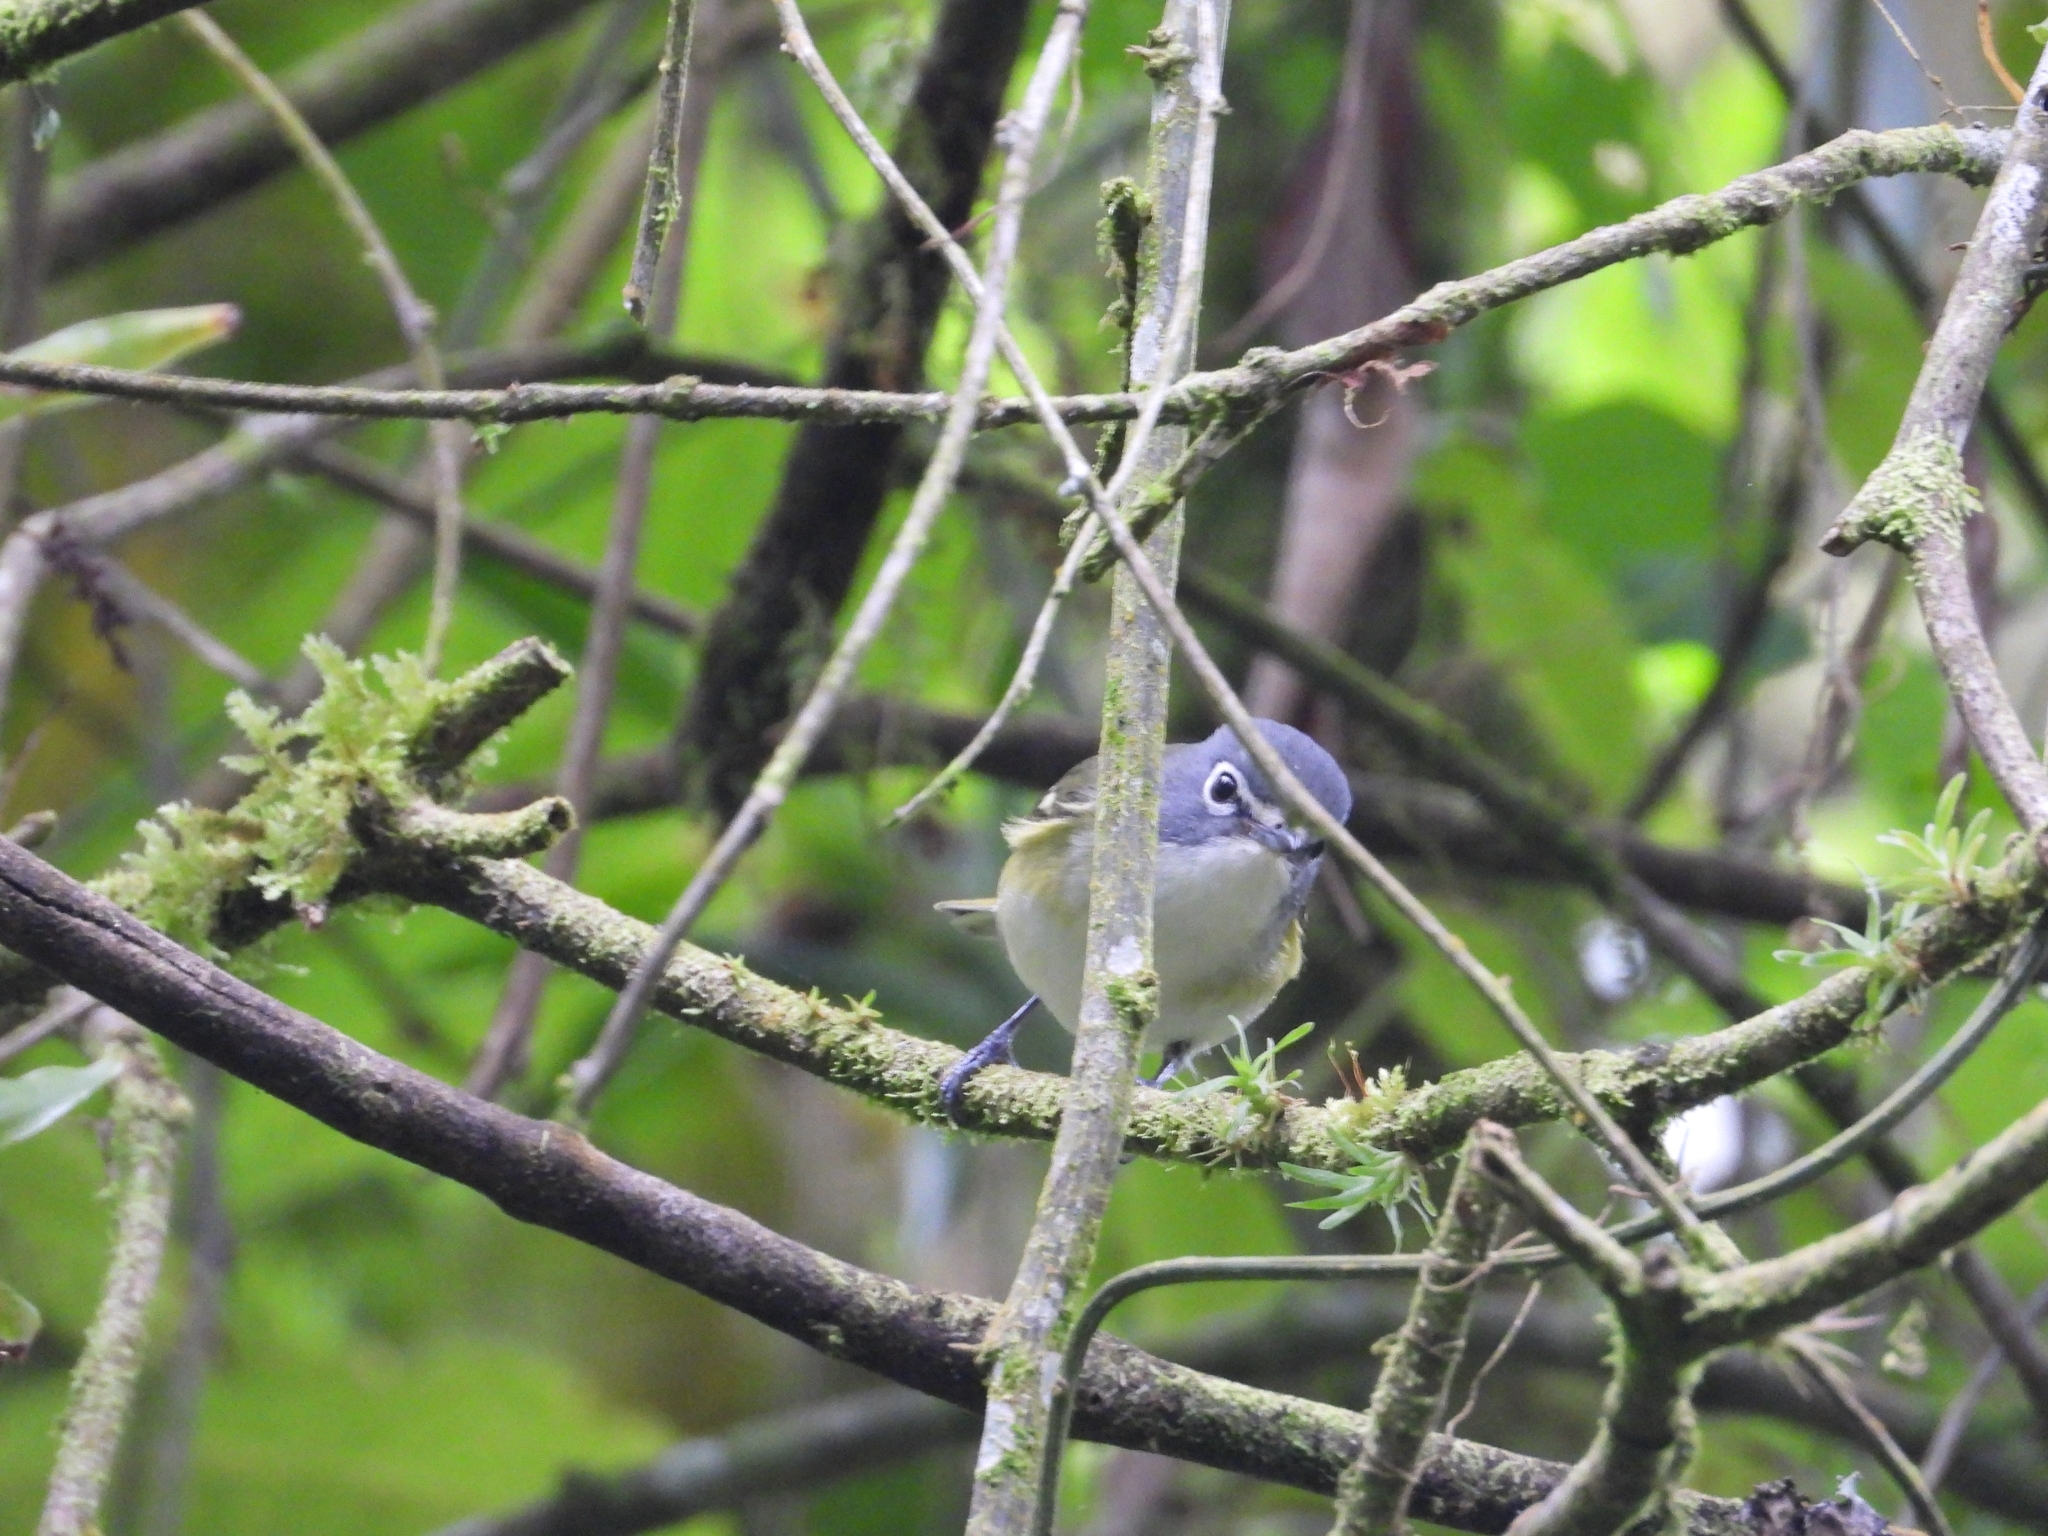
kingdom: Animalia
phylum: Chordata
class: Aves
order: Passeriformes
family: Vireonidae
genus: Vireo
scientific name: Vireo solitarius
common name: Blue-headed vireo
